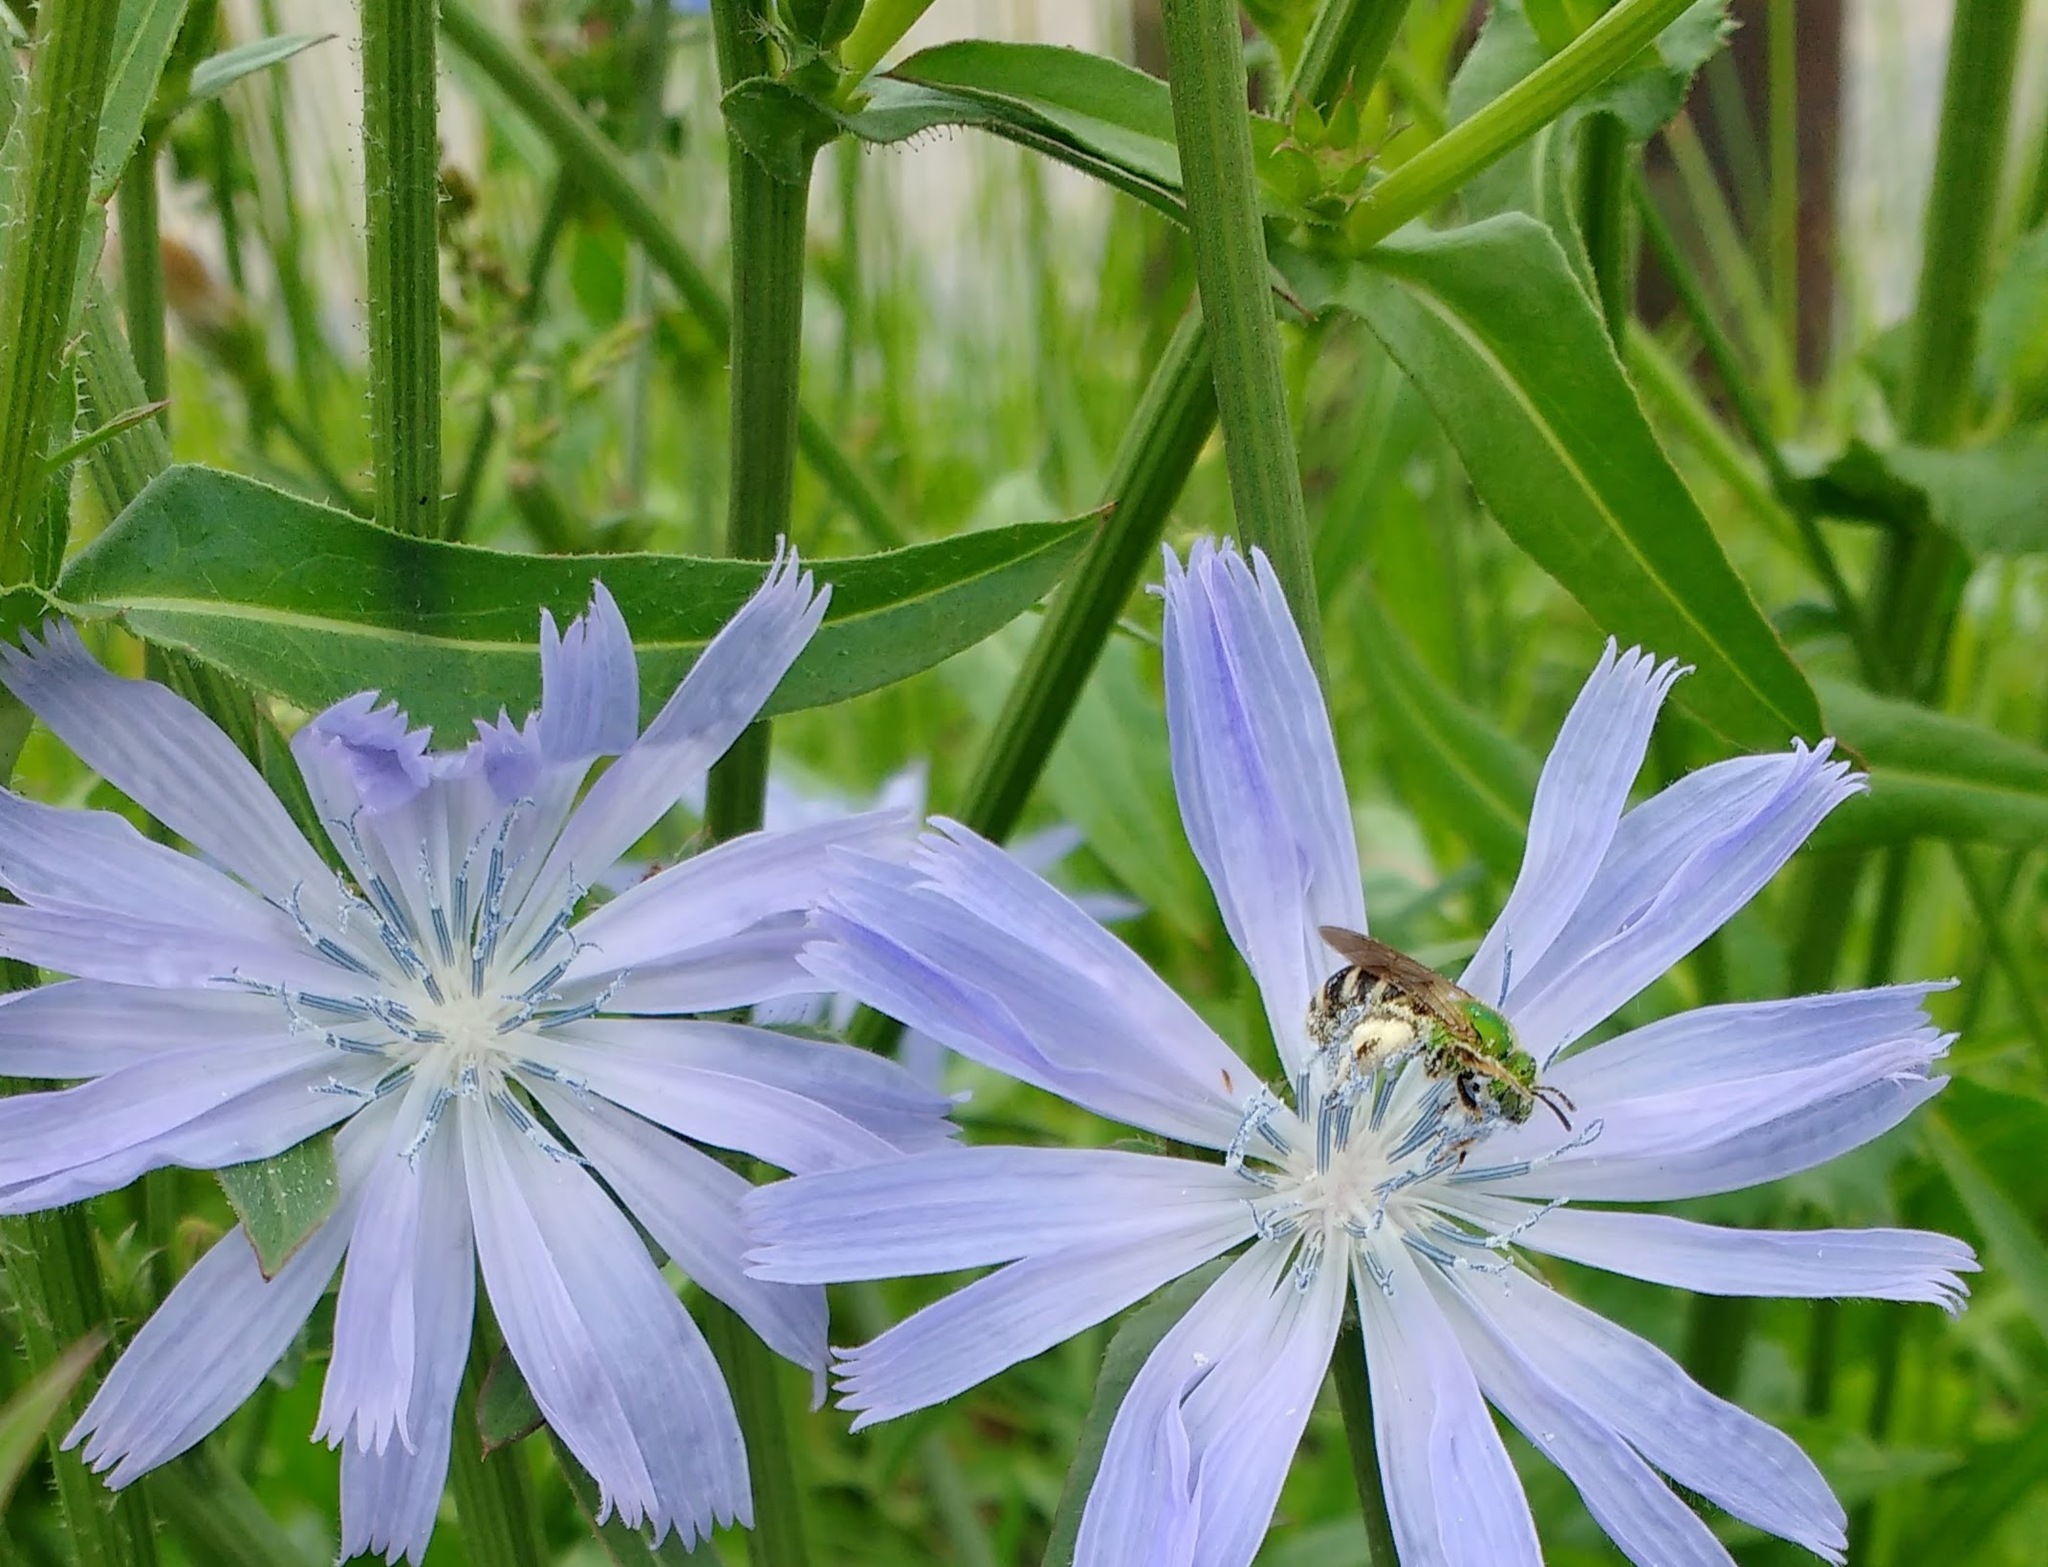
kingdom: Animalia
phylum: Arthropoda
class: Insecta
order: Hymenoptera
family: Halictidae
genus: Agapostemon
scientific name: Agapostemon virescens
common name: Bicolored striped sweat bee
